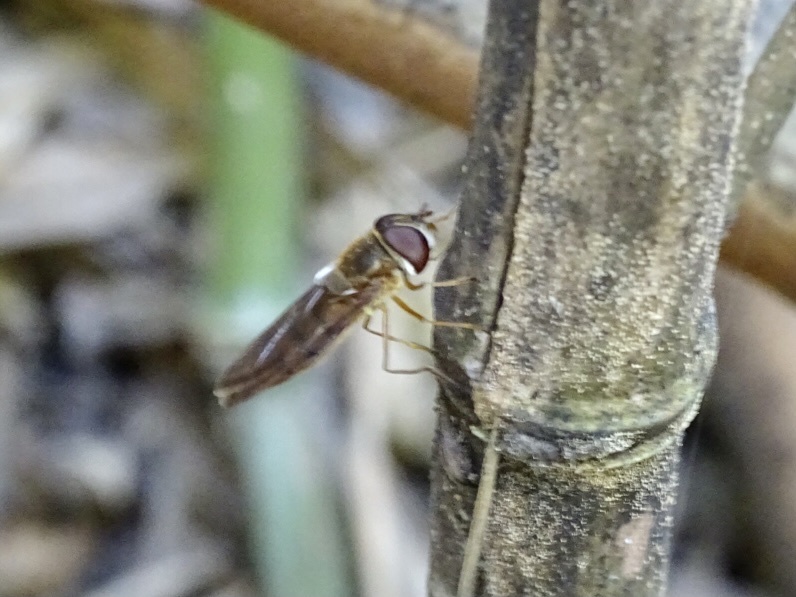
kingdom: Animalia
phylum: Arthropoda
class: Insecta
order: Diptera
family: Syrphidae
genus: Episyrphus
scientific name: Episyrphus balteatus
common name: Marmalade hoverfly
